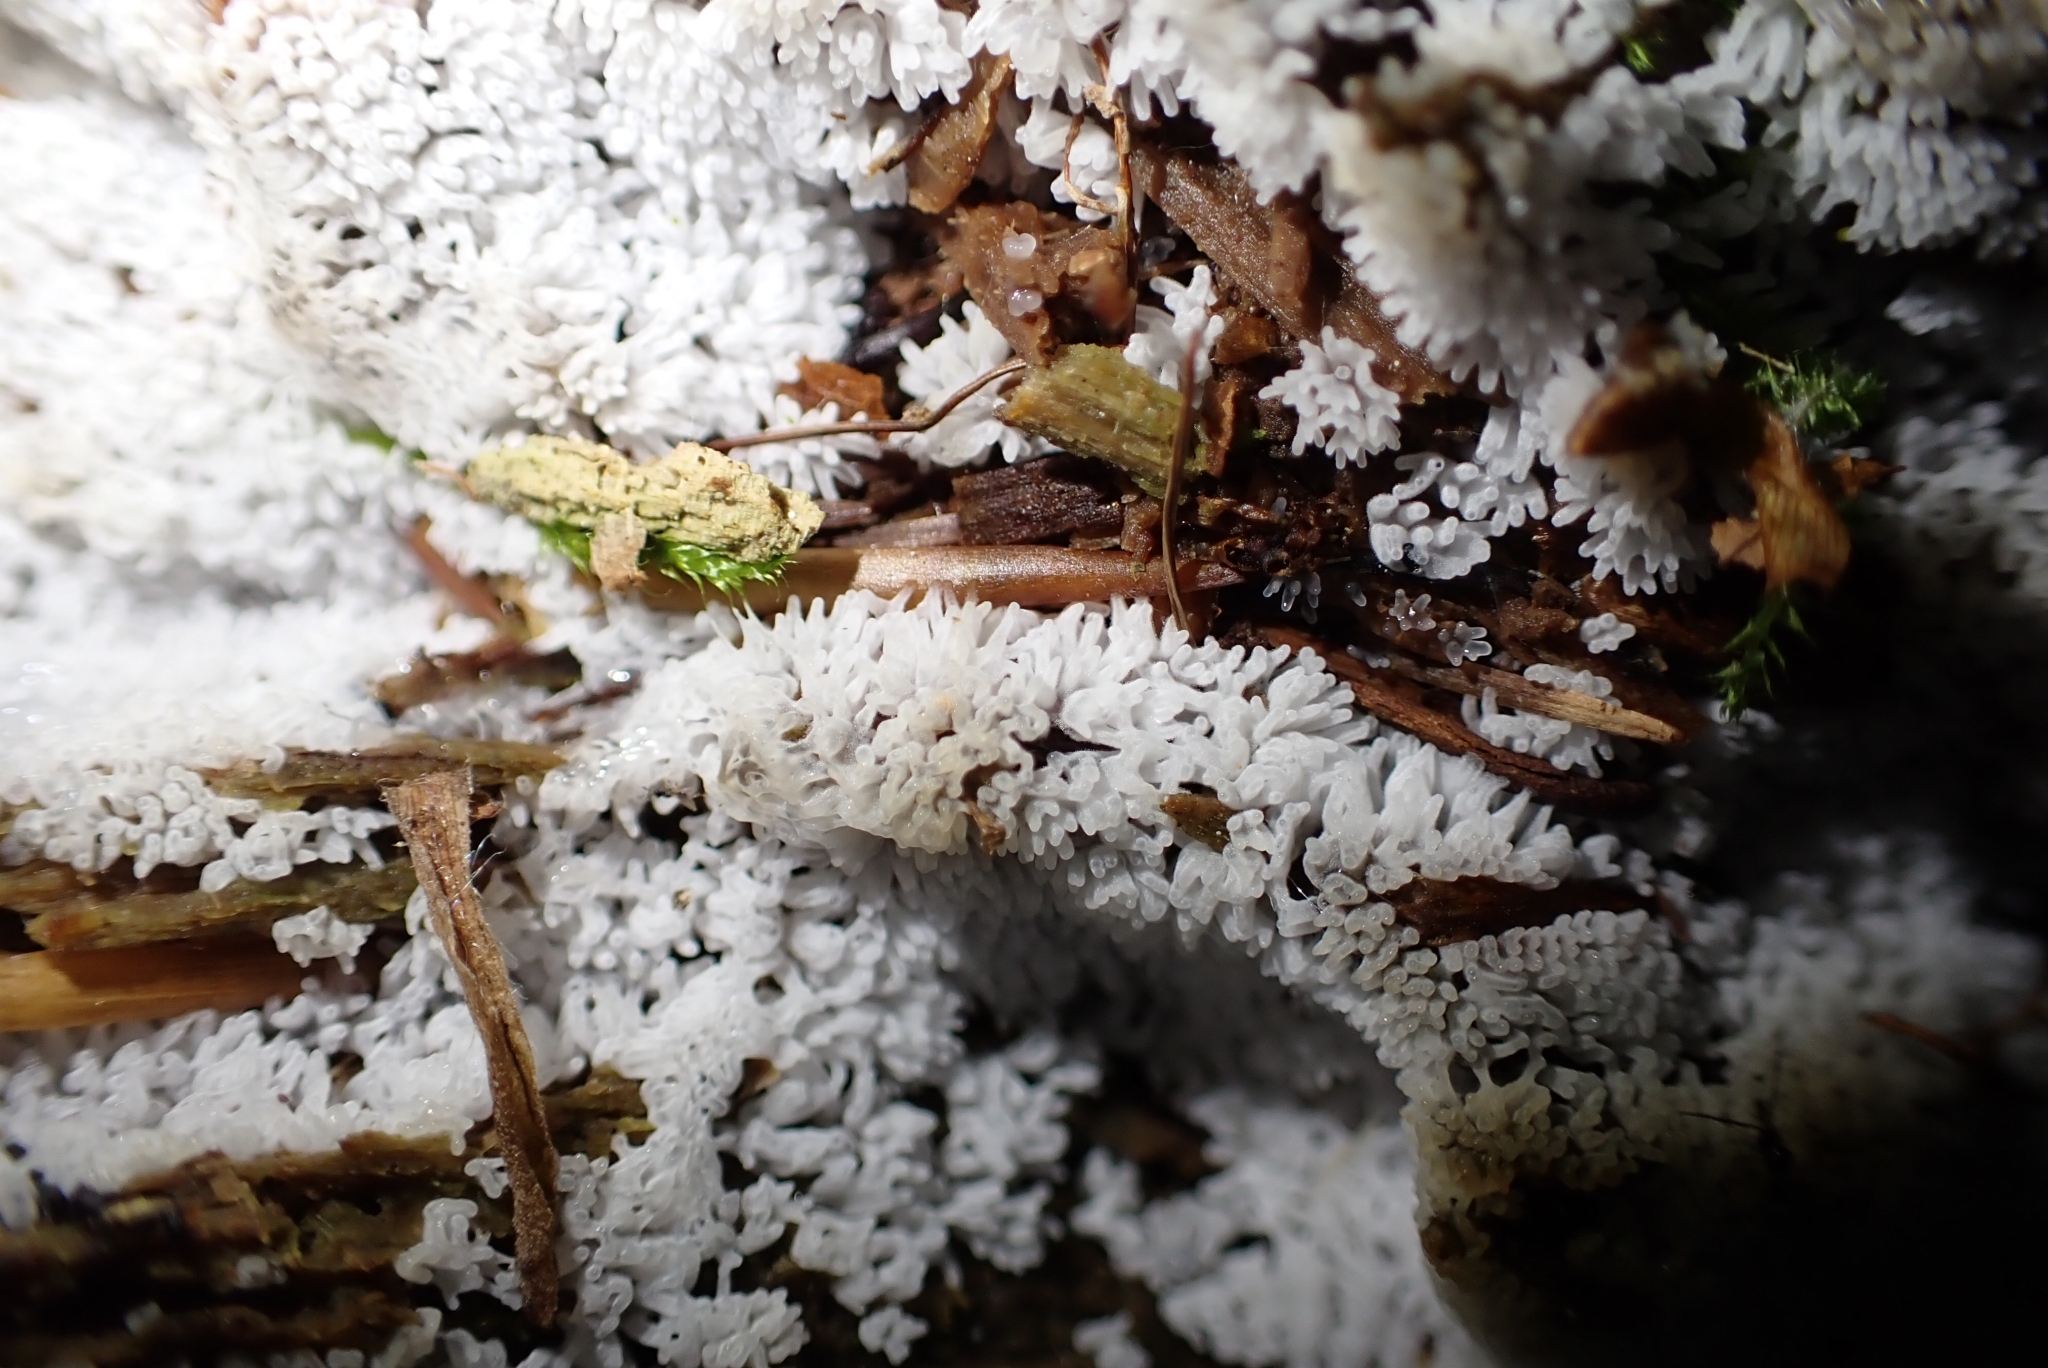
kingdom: Protozoa
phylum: Mycetozoa
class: Protosteliomycetes
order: Ceratiomyxales
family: Ceratiomyxaceae
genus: Ceratiomyxa
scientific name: Ceratiomyxa fruticulosa
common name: Honeycomb coral slime mold
